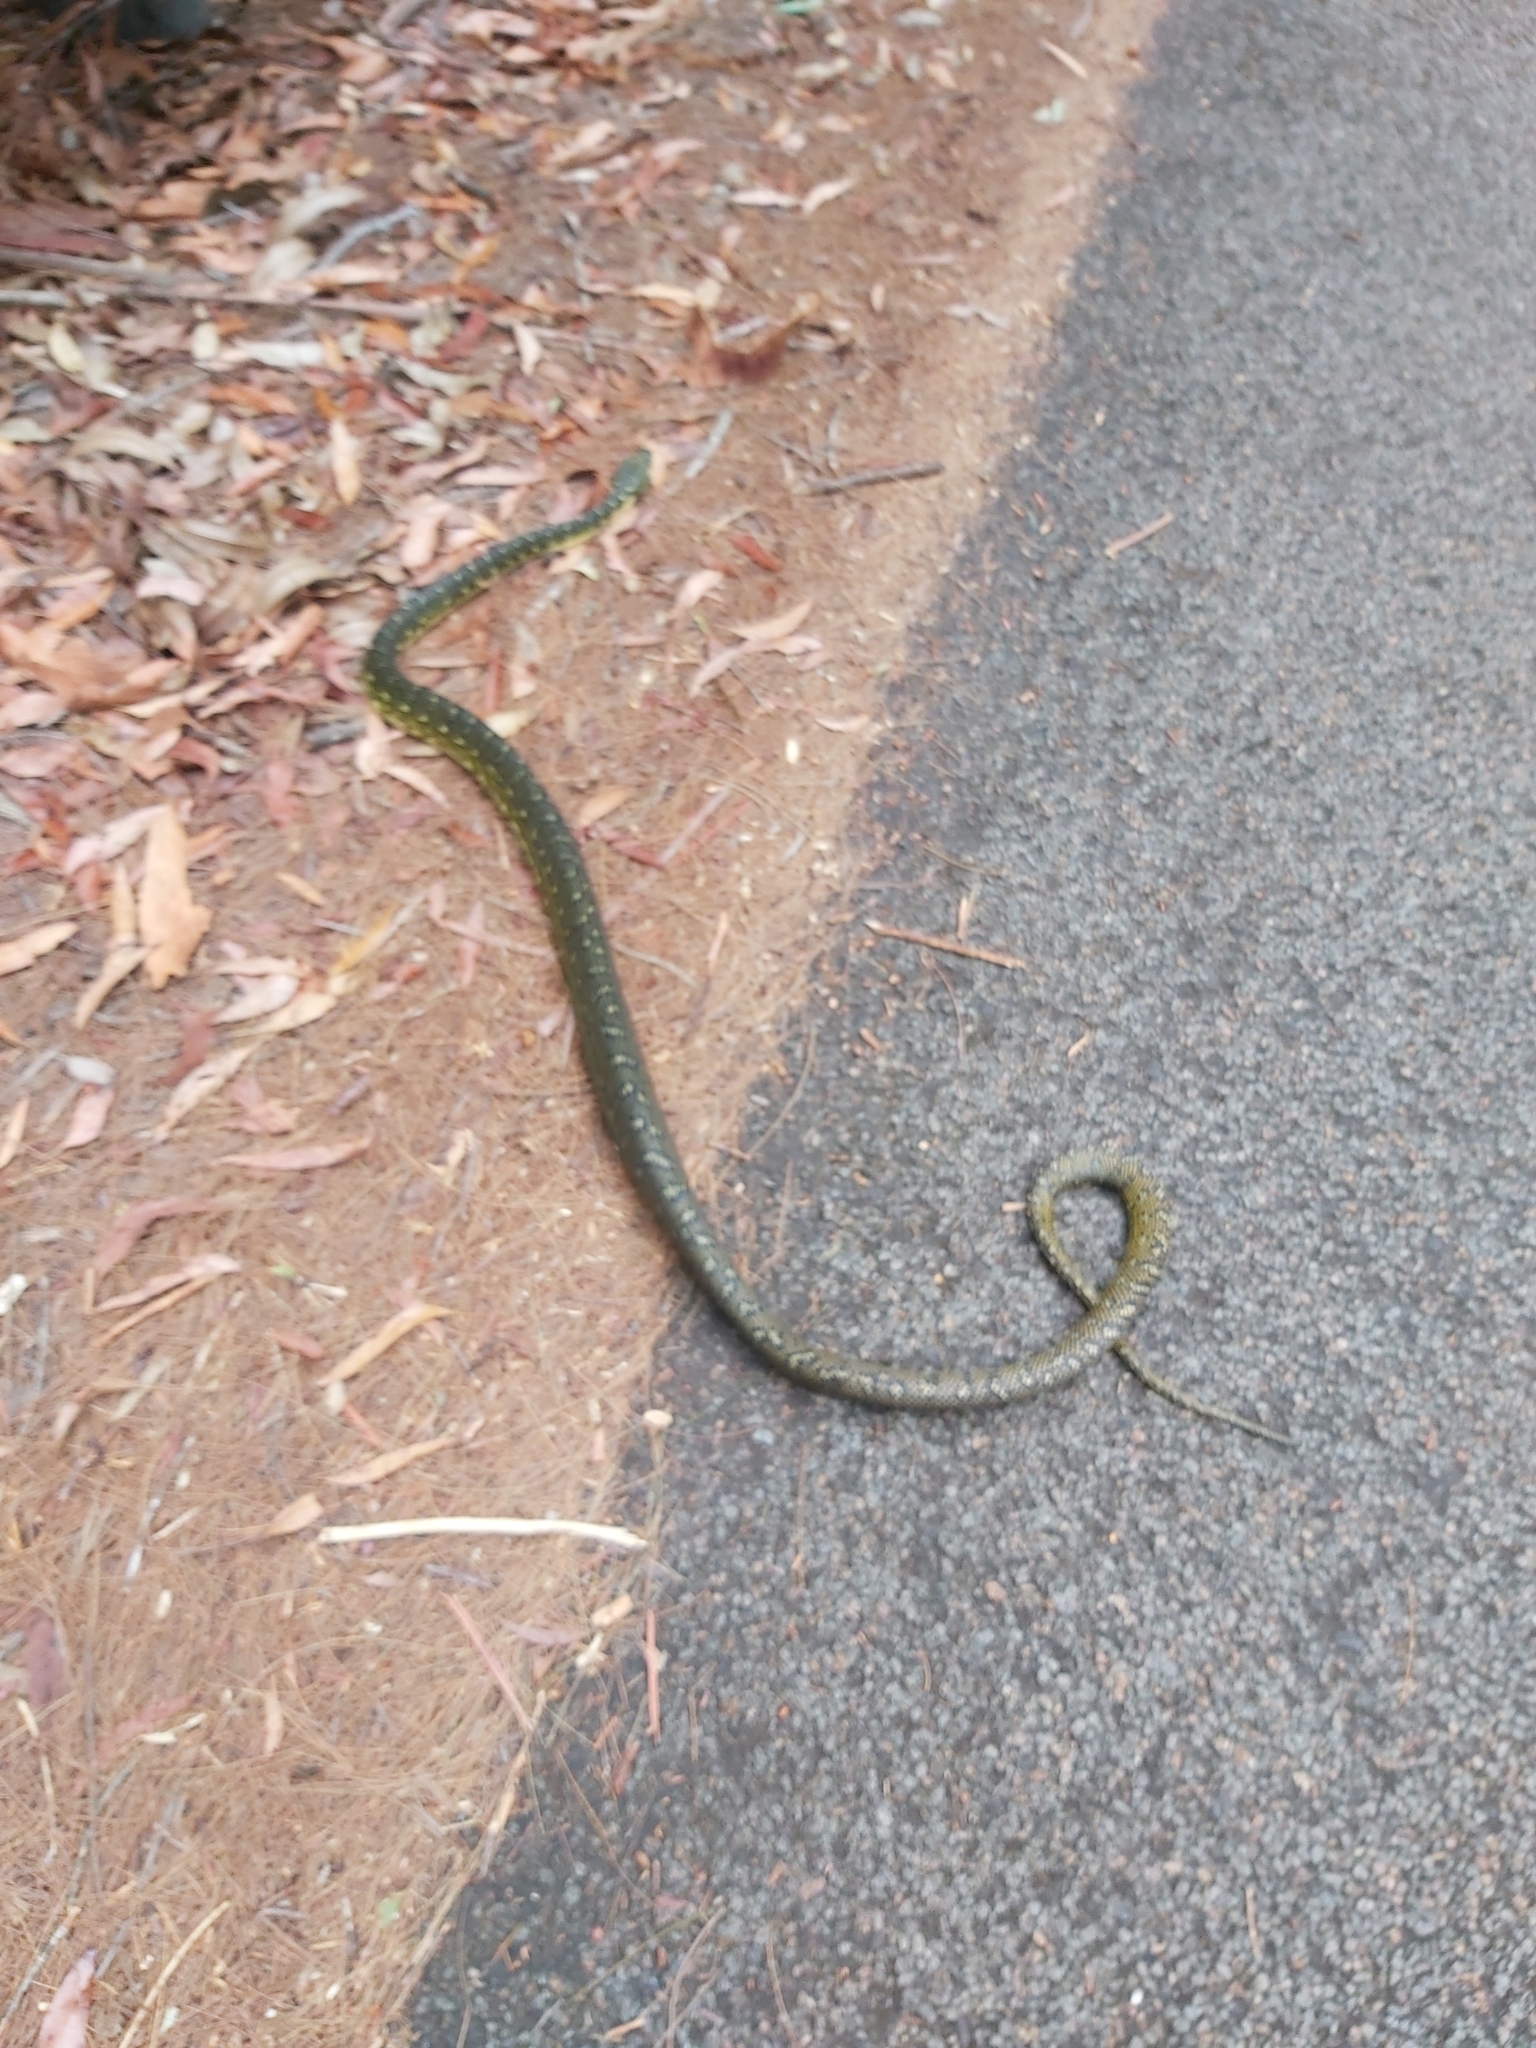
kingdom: Animalia
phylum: Chordata
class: Squamata
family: Pythonidae
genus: Morelia
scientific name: Morelia spilota
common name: Carpet python
